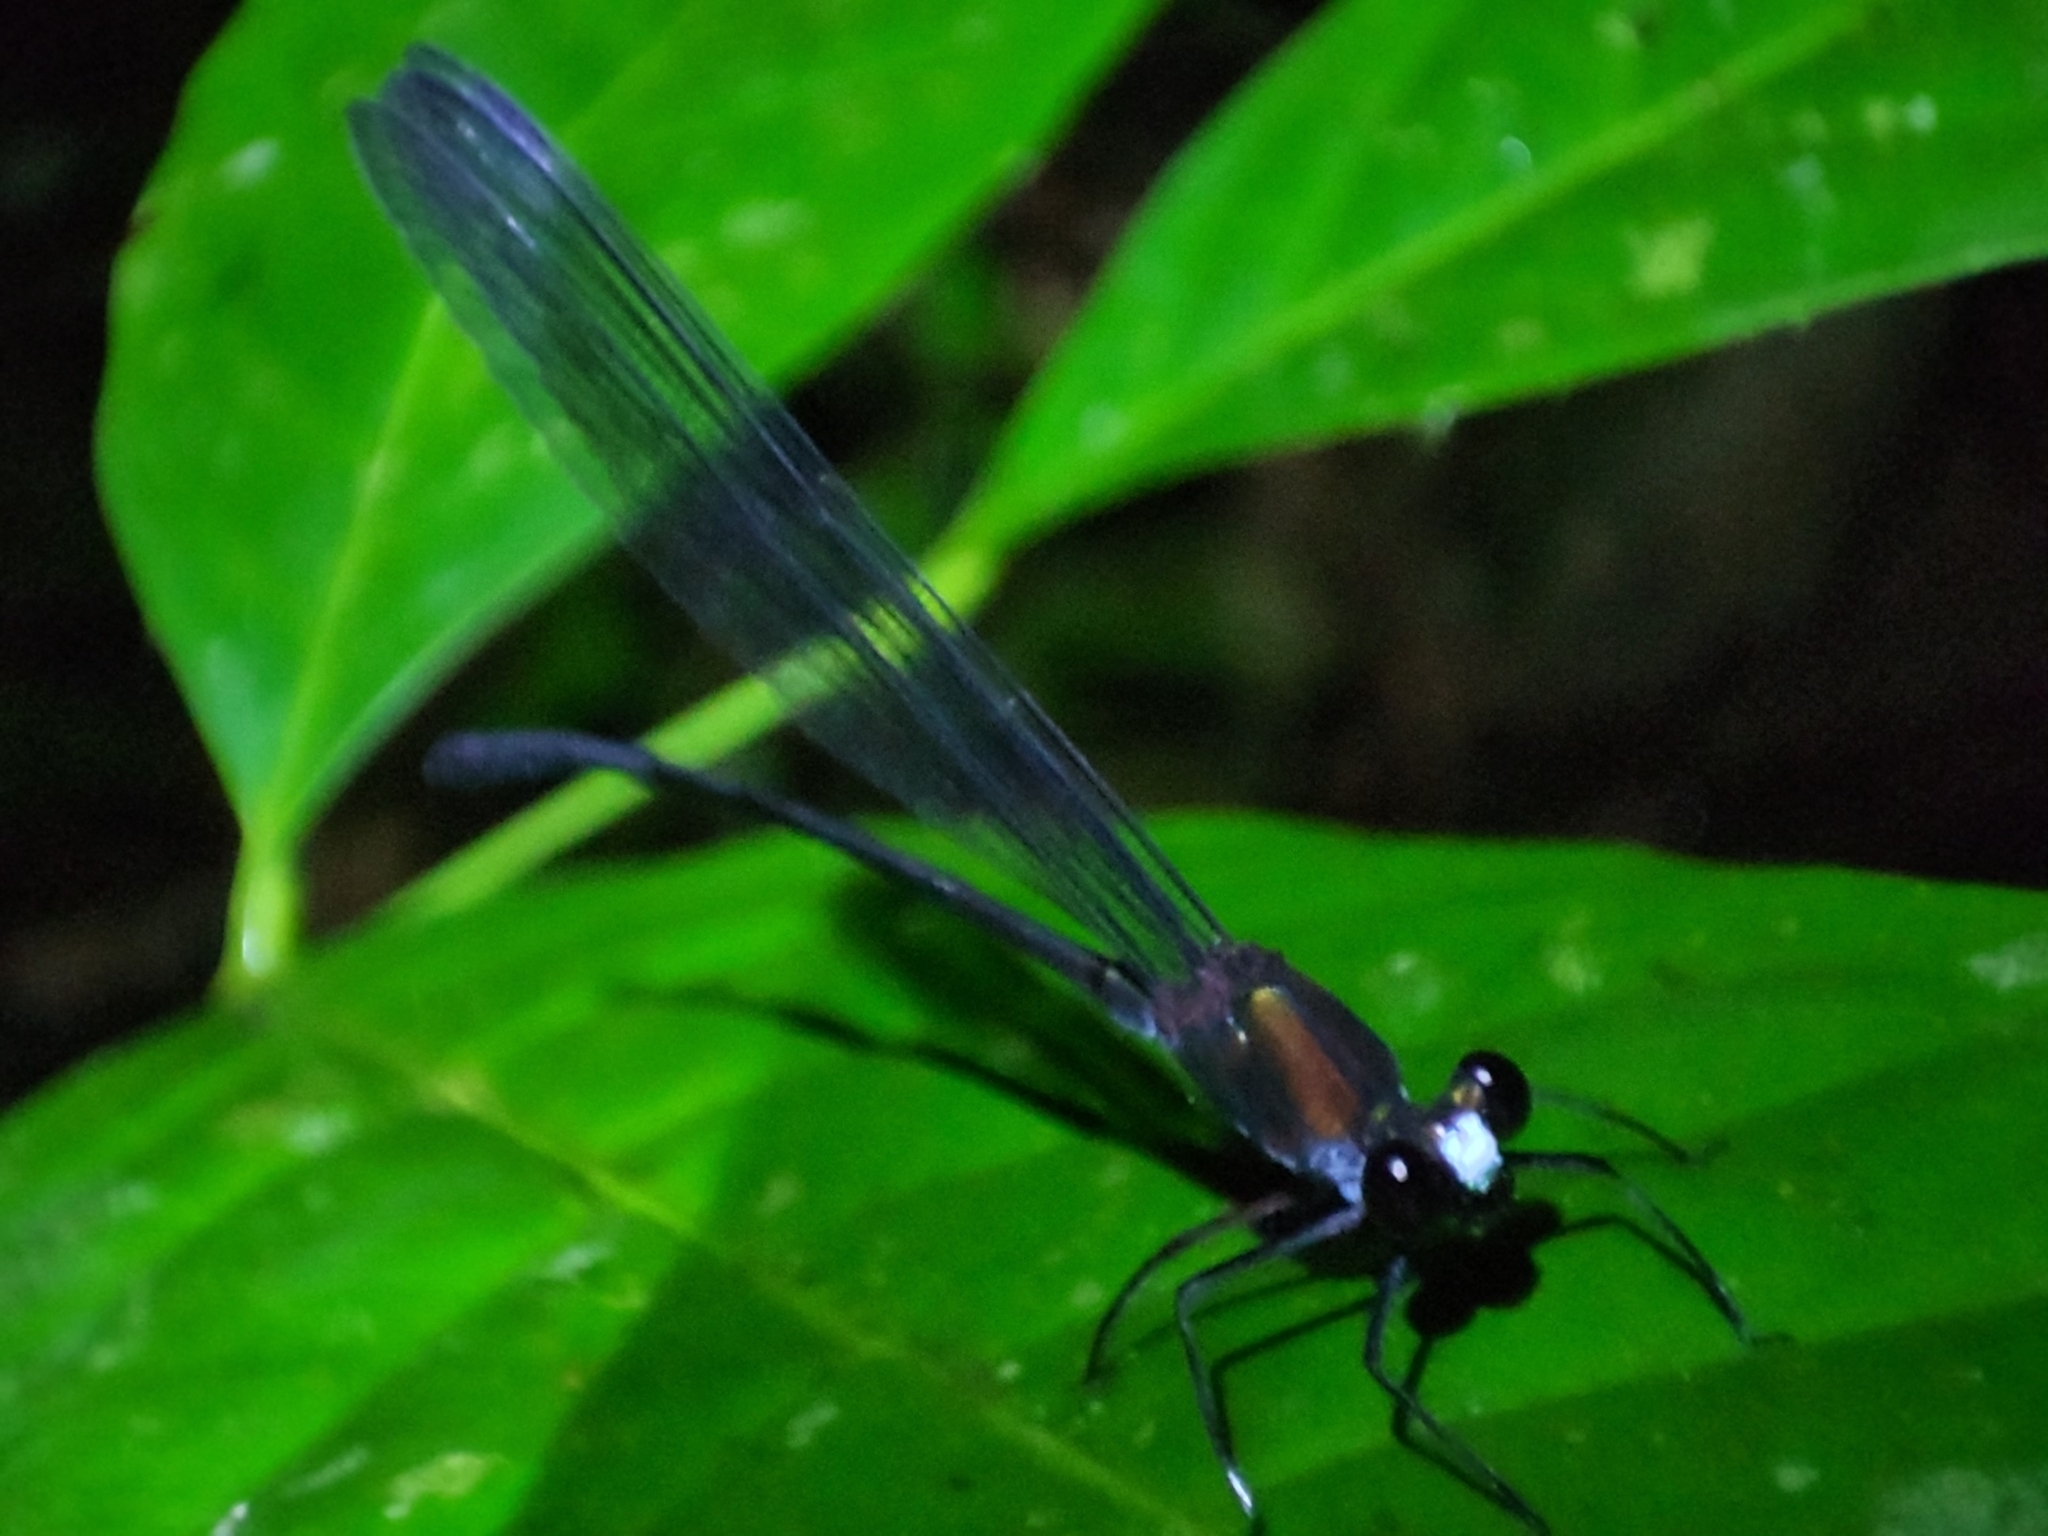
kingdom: Animalia
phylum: Arthropoda
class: Insecta
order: Odonata
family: Calopterygidae
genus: Echo
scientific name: Echo modesta
